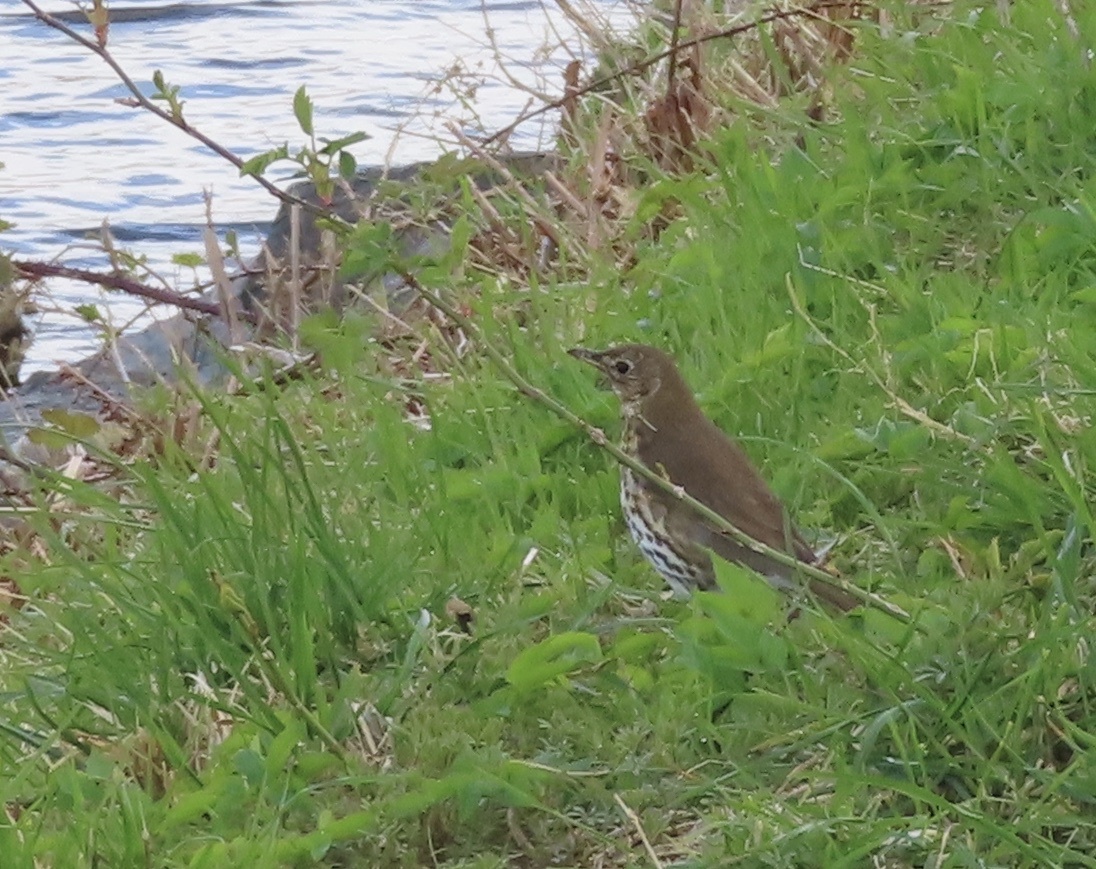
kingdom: Animalia
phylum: Chordata
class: Aves
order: Passeriformes
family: Turdidae
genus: Turdus
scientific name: Turdus philomelos
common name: Song thrush
